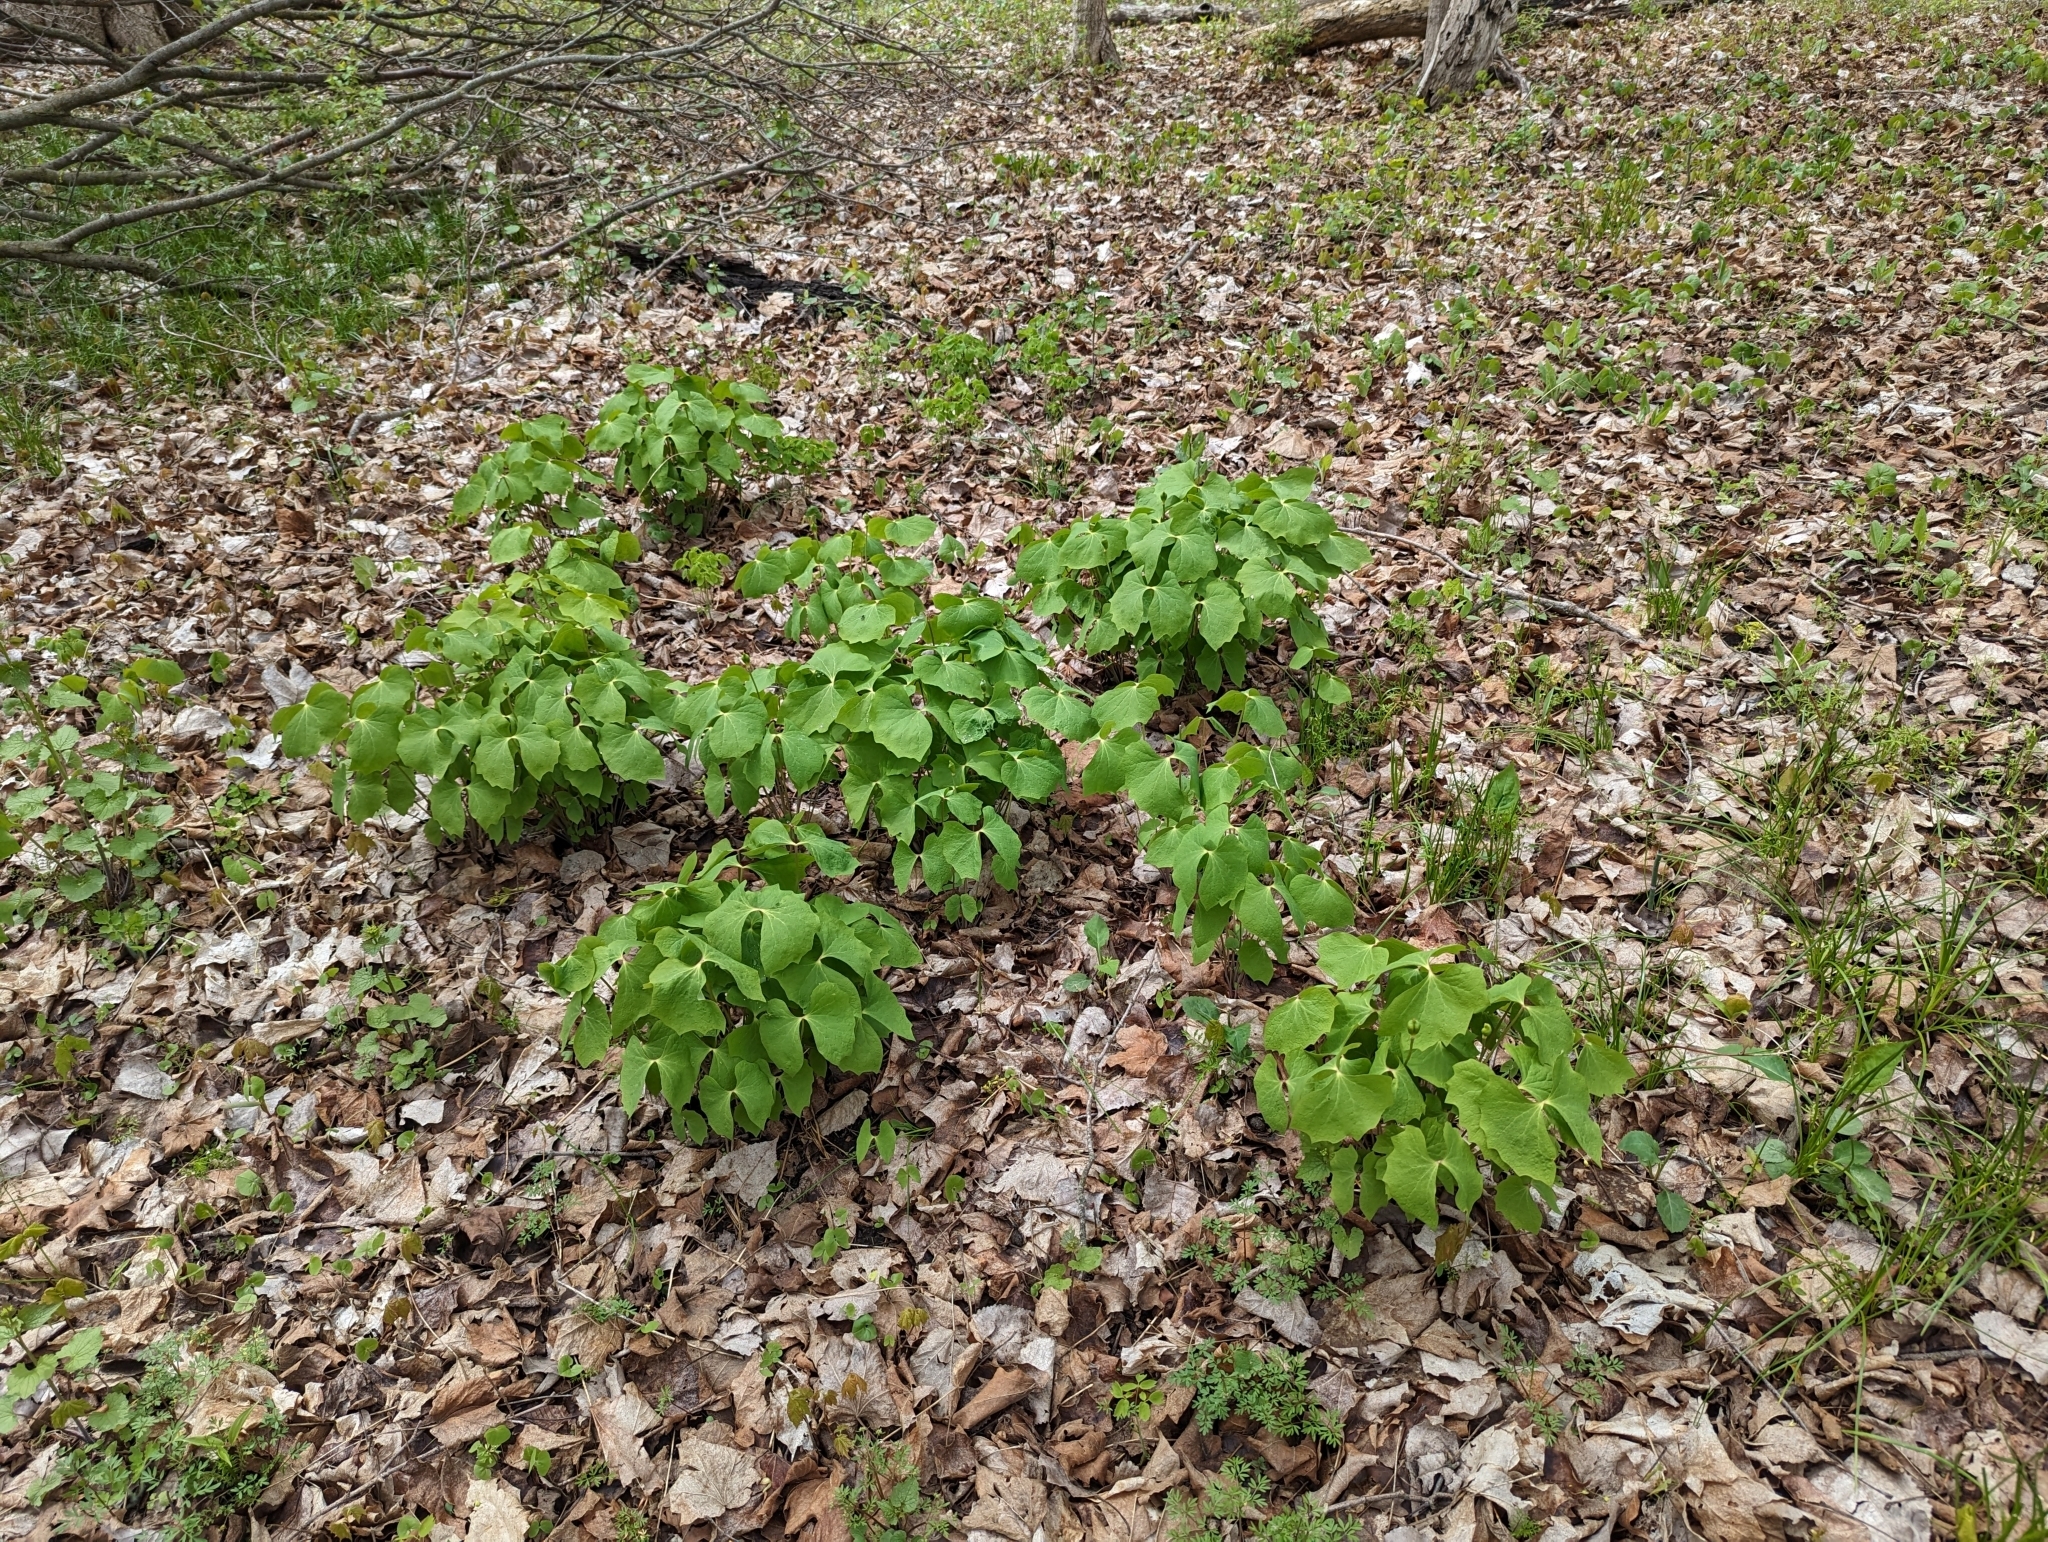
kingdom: Plantae
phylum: Tracheophyta
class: Magnoliopsida
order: Ranunculales
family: Berberidaceae
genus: Jeffersonia
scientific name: Jeffersonia diphylla
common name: Rheumatism-root
